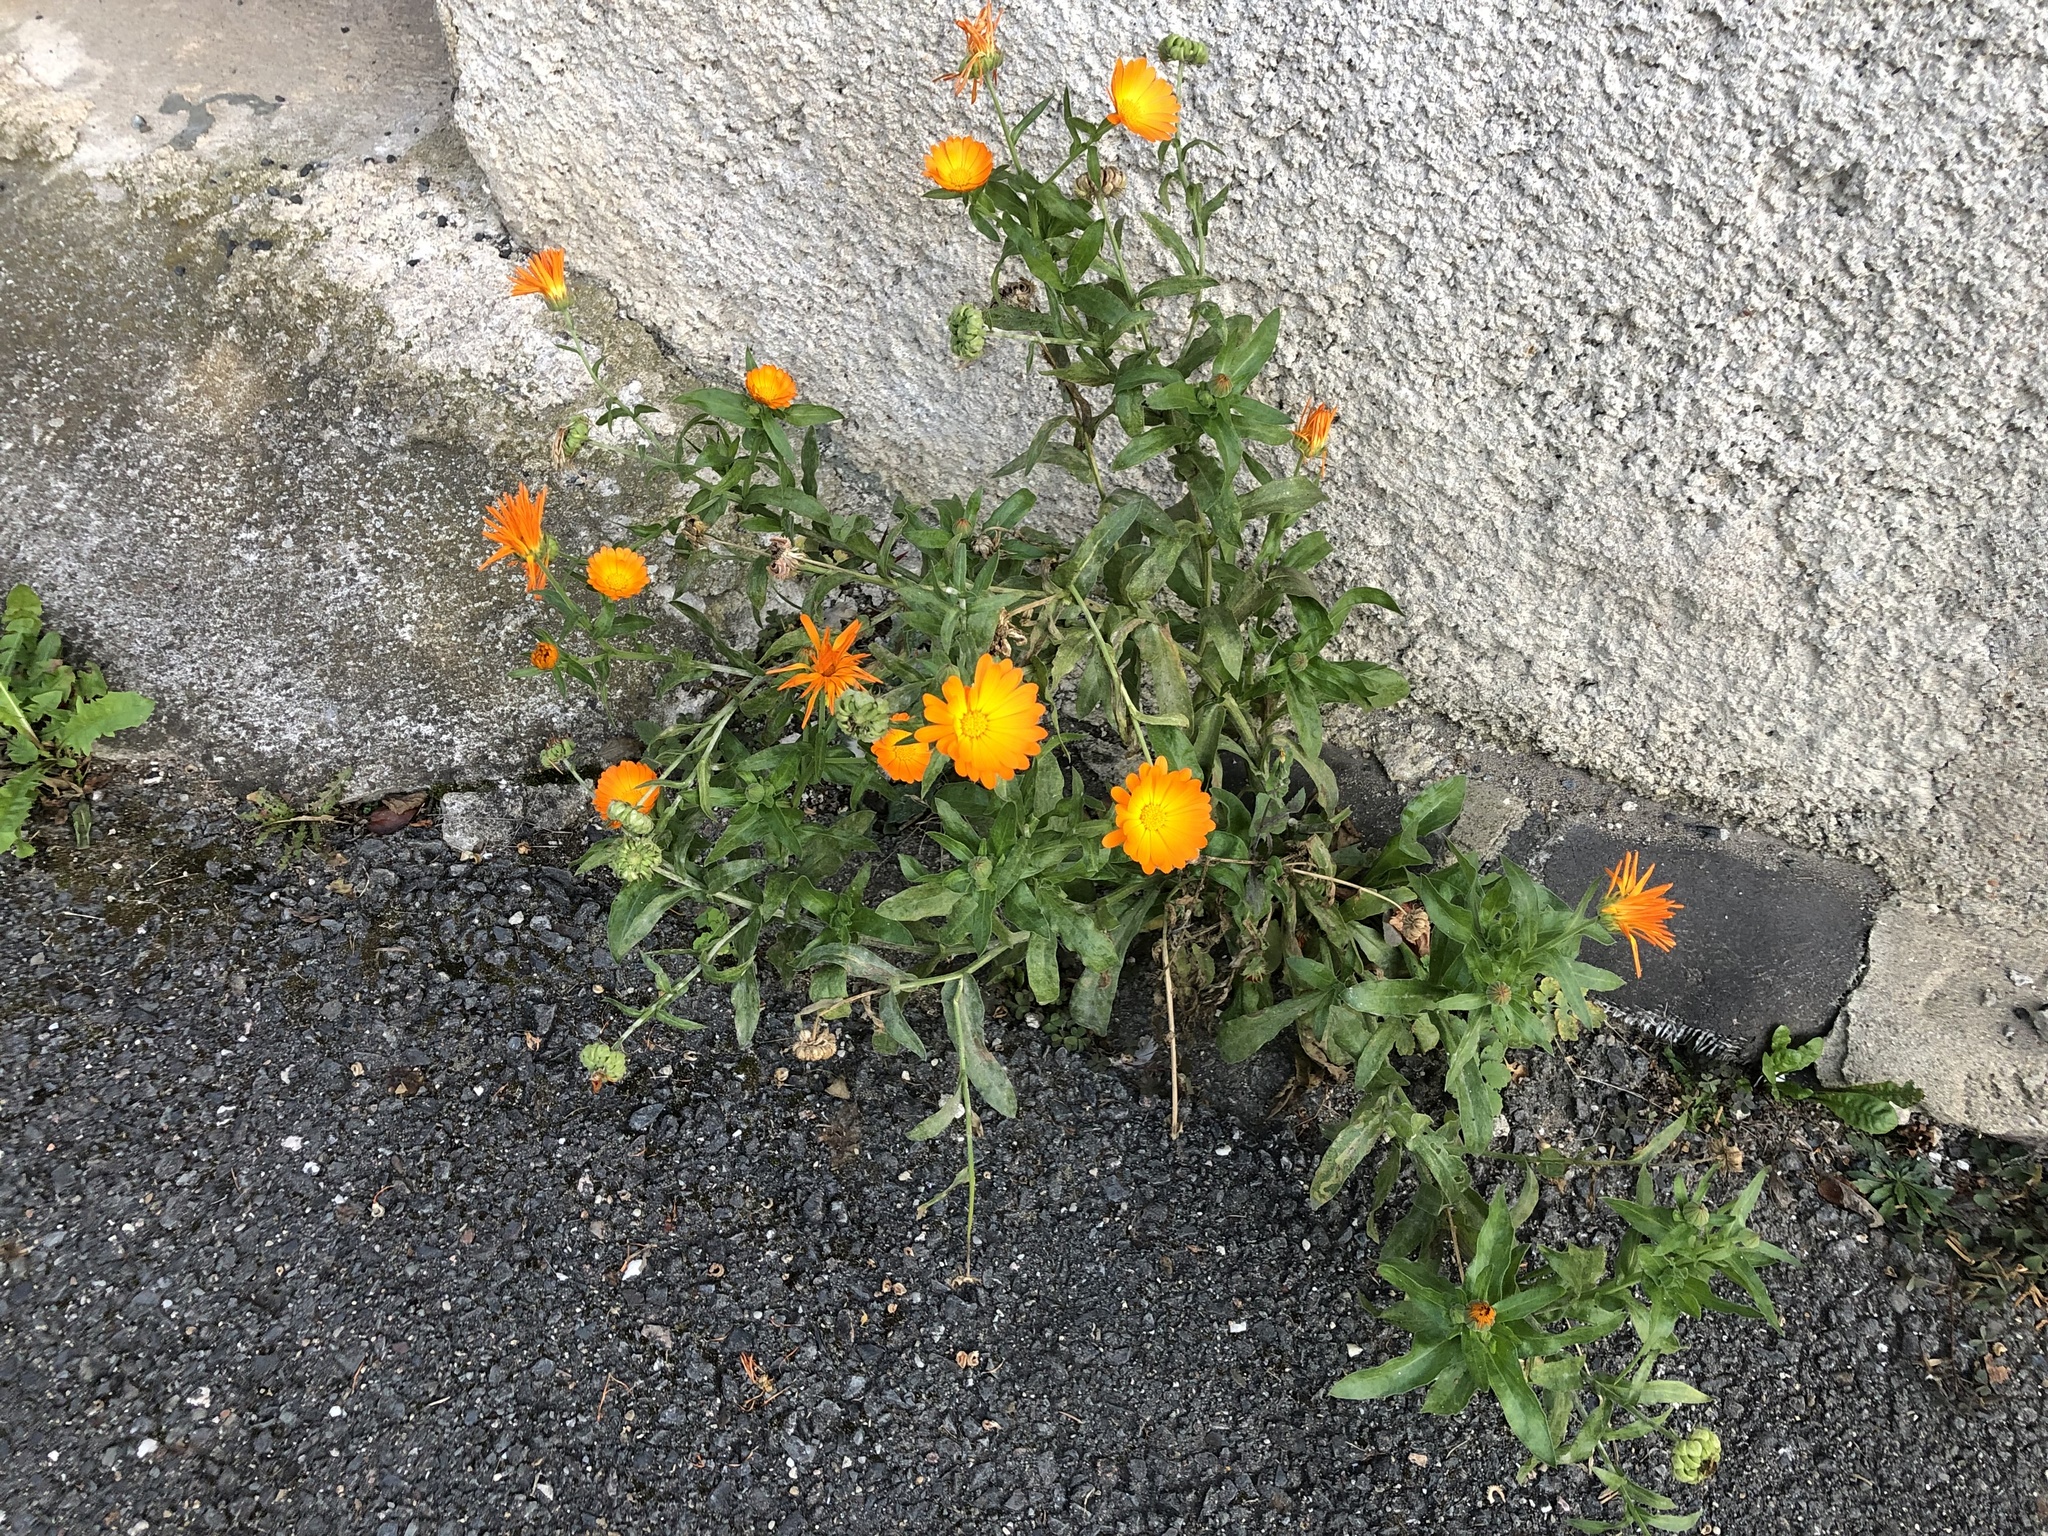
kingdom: Plantae
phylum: Tracheophyta
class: Magnoliopsida
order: Asterales
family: Asteraceae
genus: Calendula
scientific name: Calendula officinalis
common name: Pot marigold
